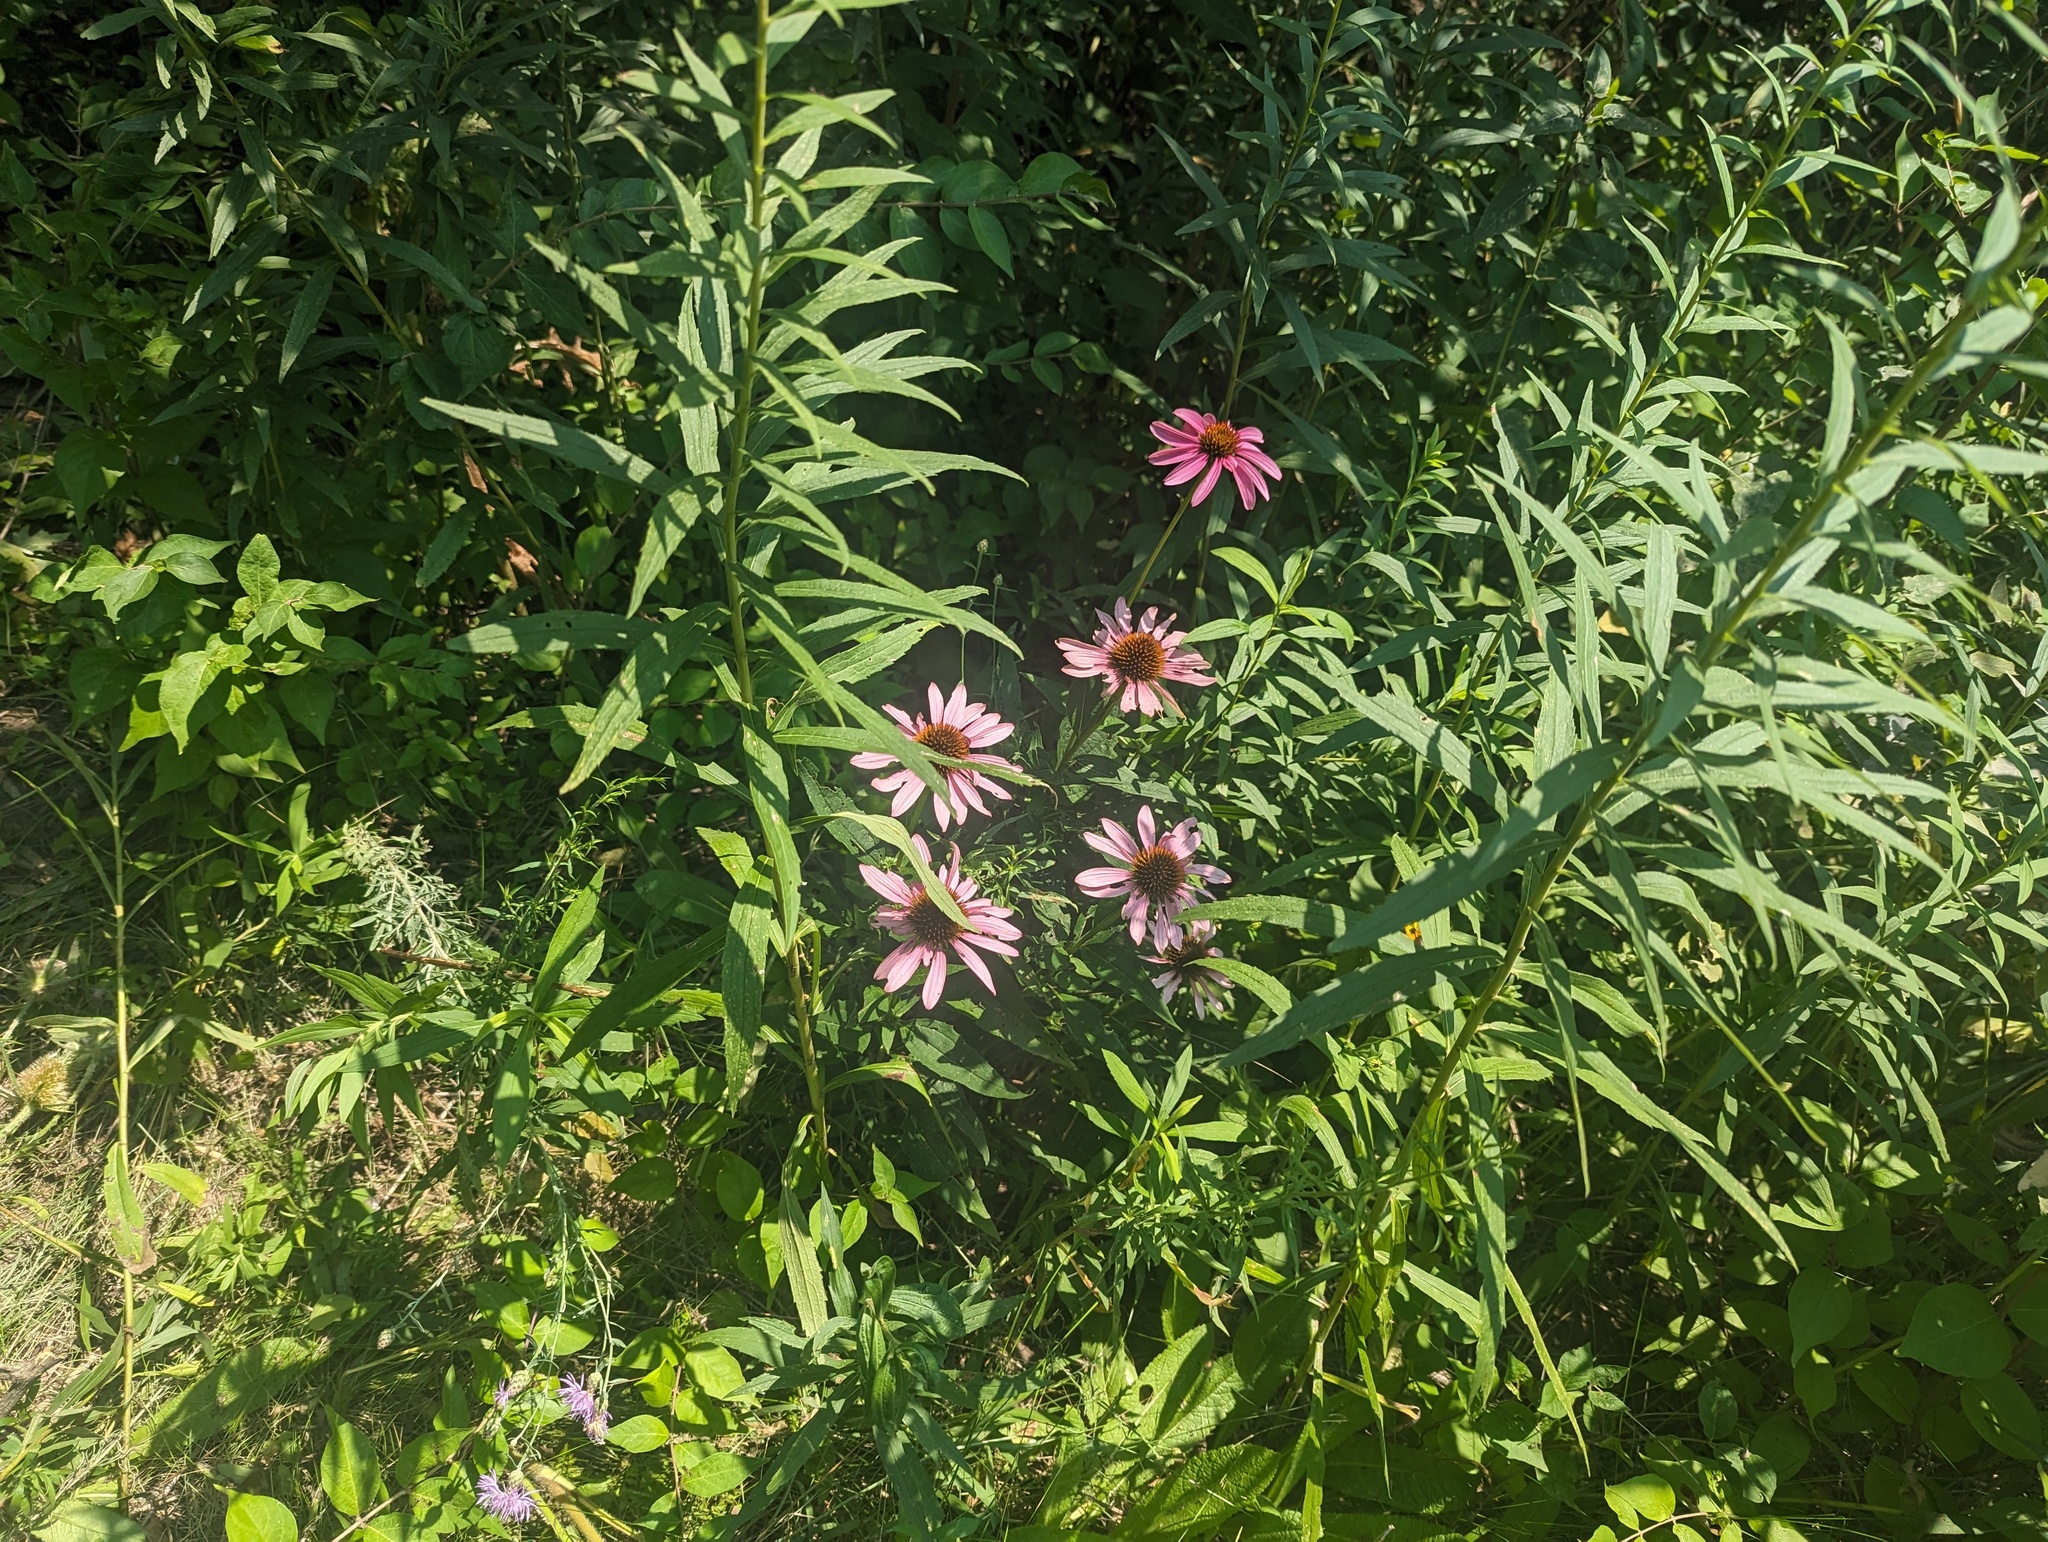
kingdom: Plantae
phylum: Tracheophyta
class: Magnoliopsida
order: Asterales
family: Asteraceae
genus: Echinacea
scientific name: Echinacea purpurea
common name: Broad-leaved purple coneflower
